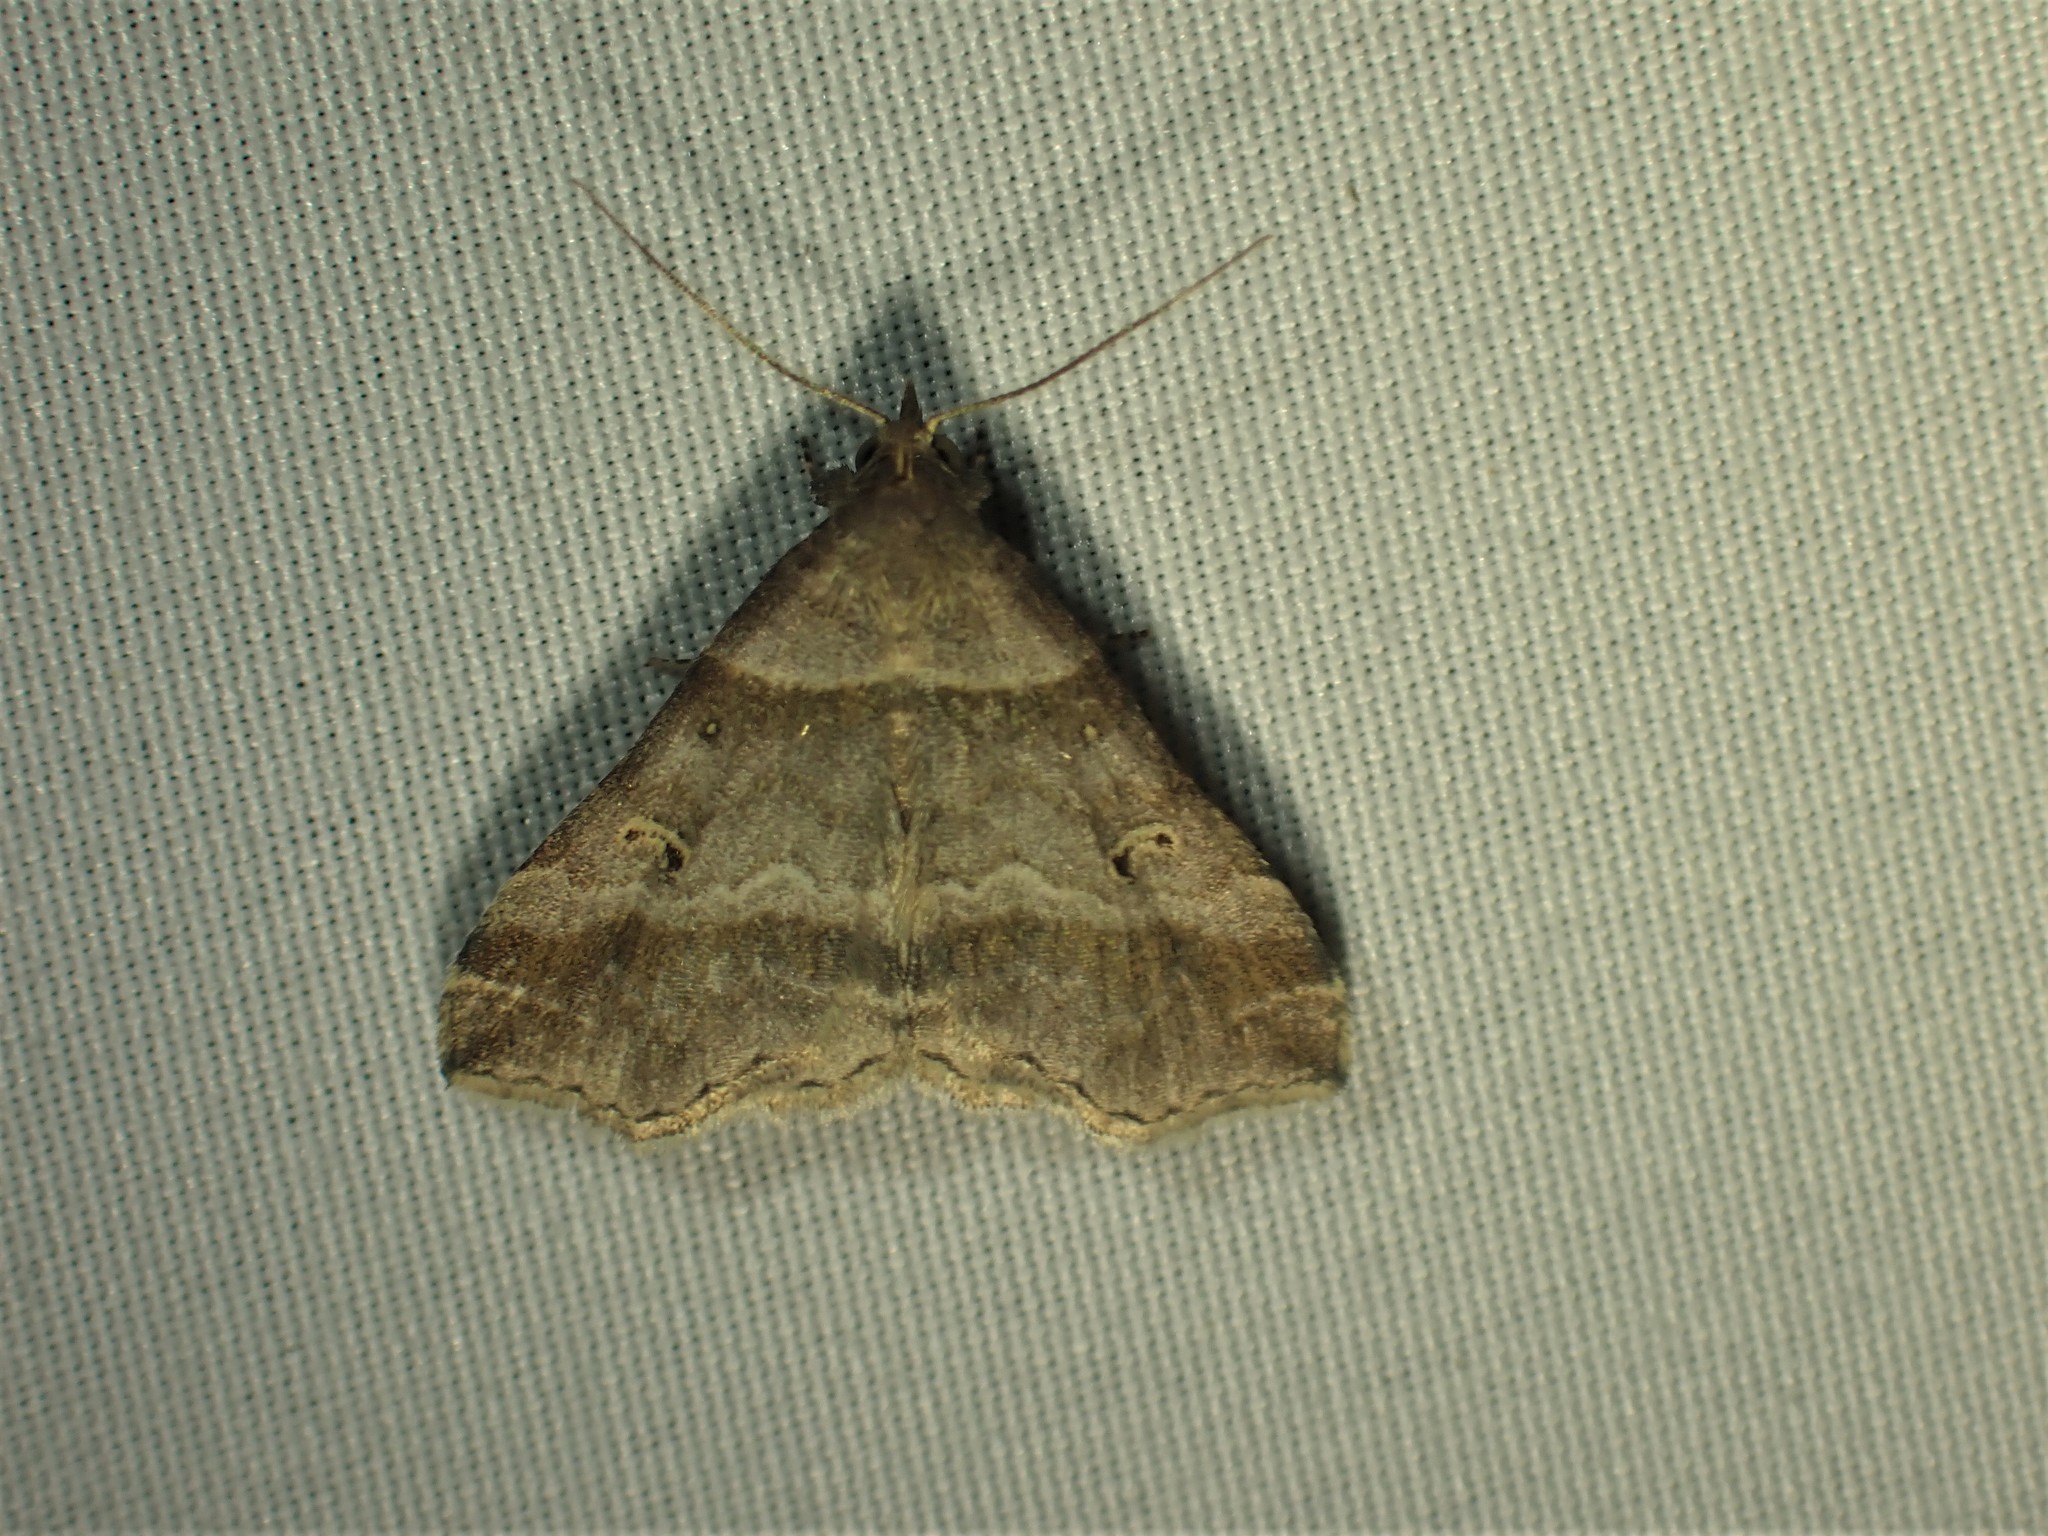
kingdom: Animalia
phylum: Arthropoda
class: Insecta
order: Lepidoptera
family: Erebidae
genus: Phaeolita
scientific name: Phaeolita pyramusalis
